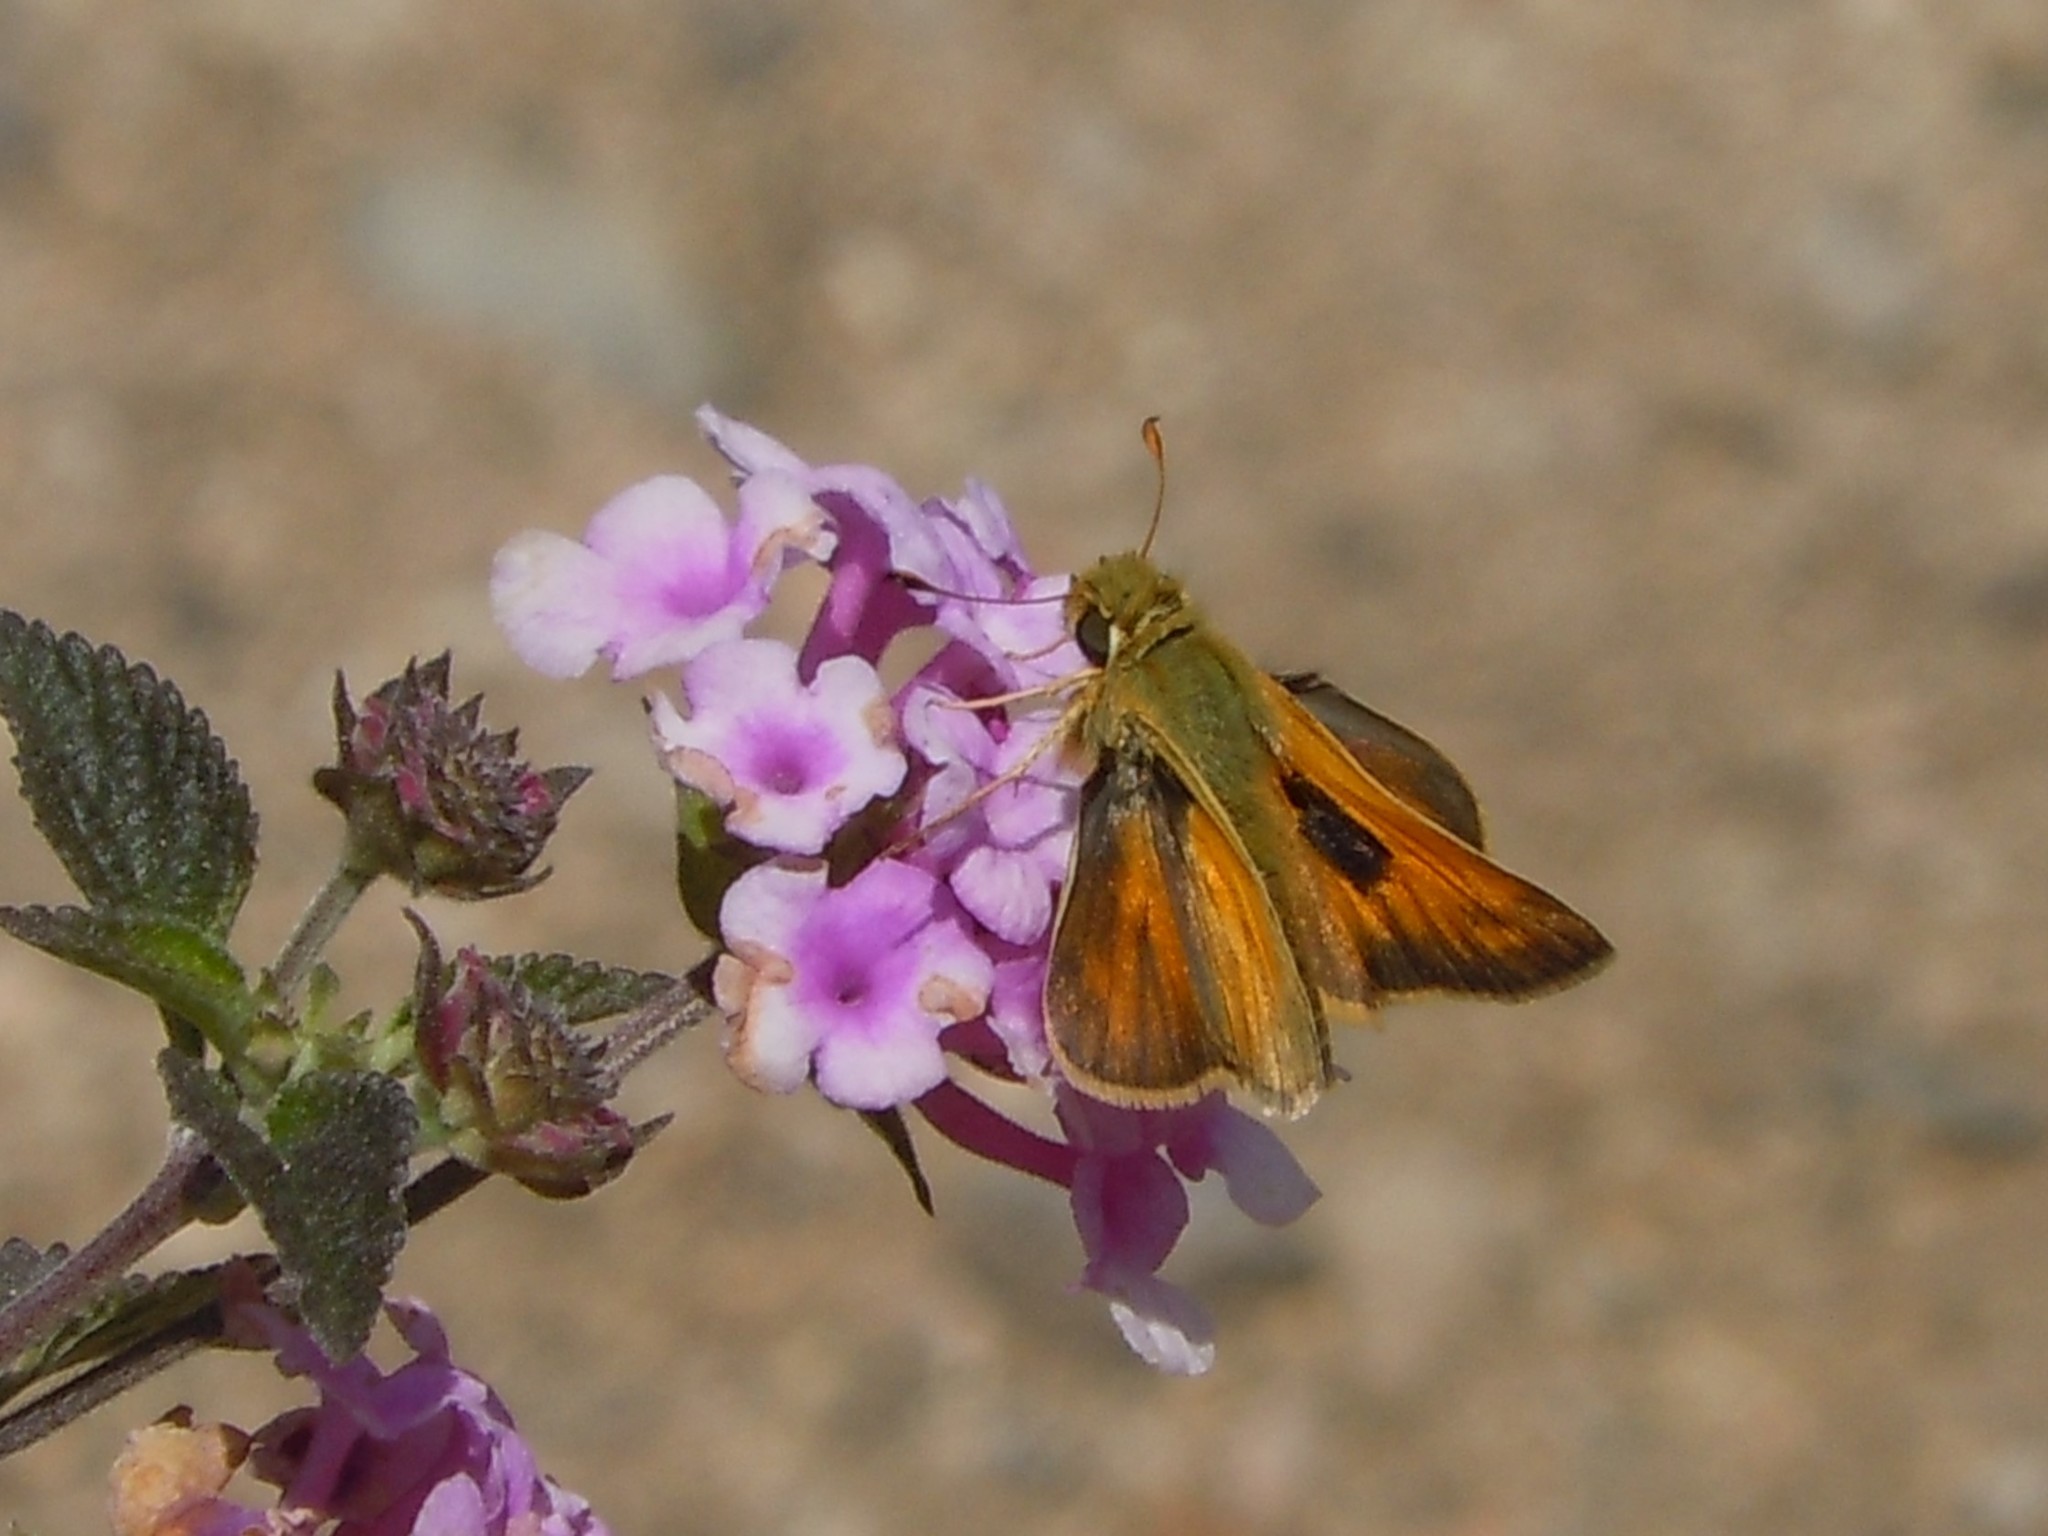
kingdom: Animalia
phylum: Arthropoda
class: Insecta
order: Lepidoptera
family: Hesperiidae
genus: Atalopedes
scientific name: Atalopedes campestris
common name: Sachem
